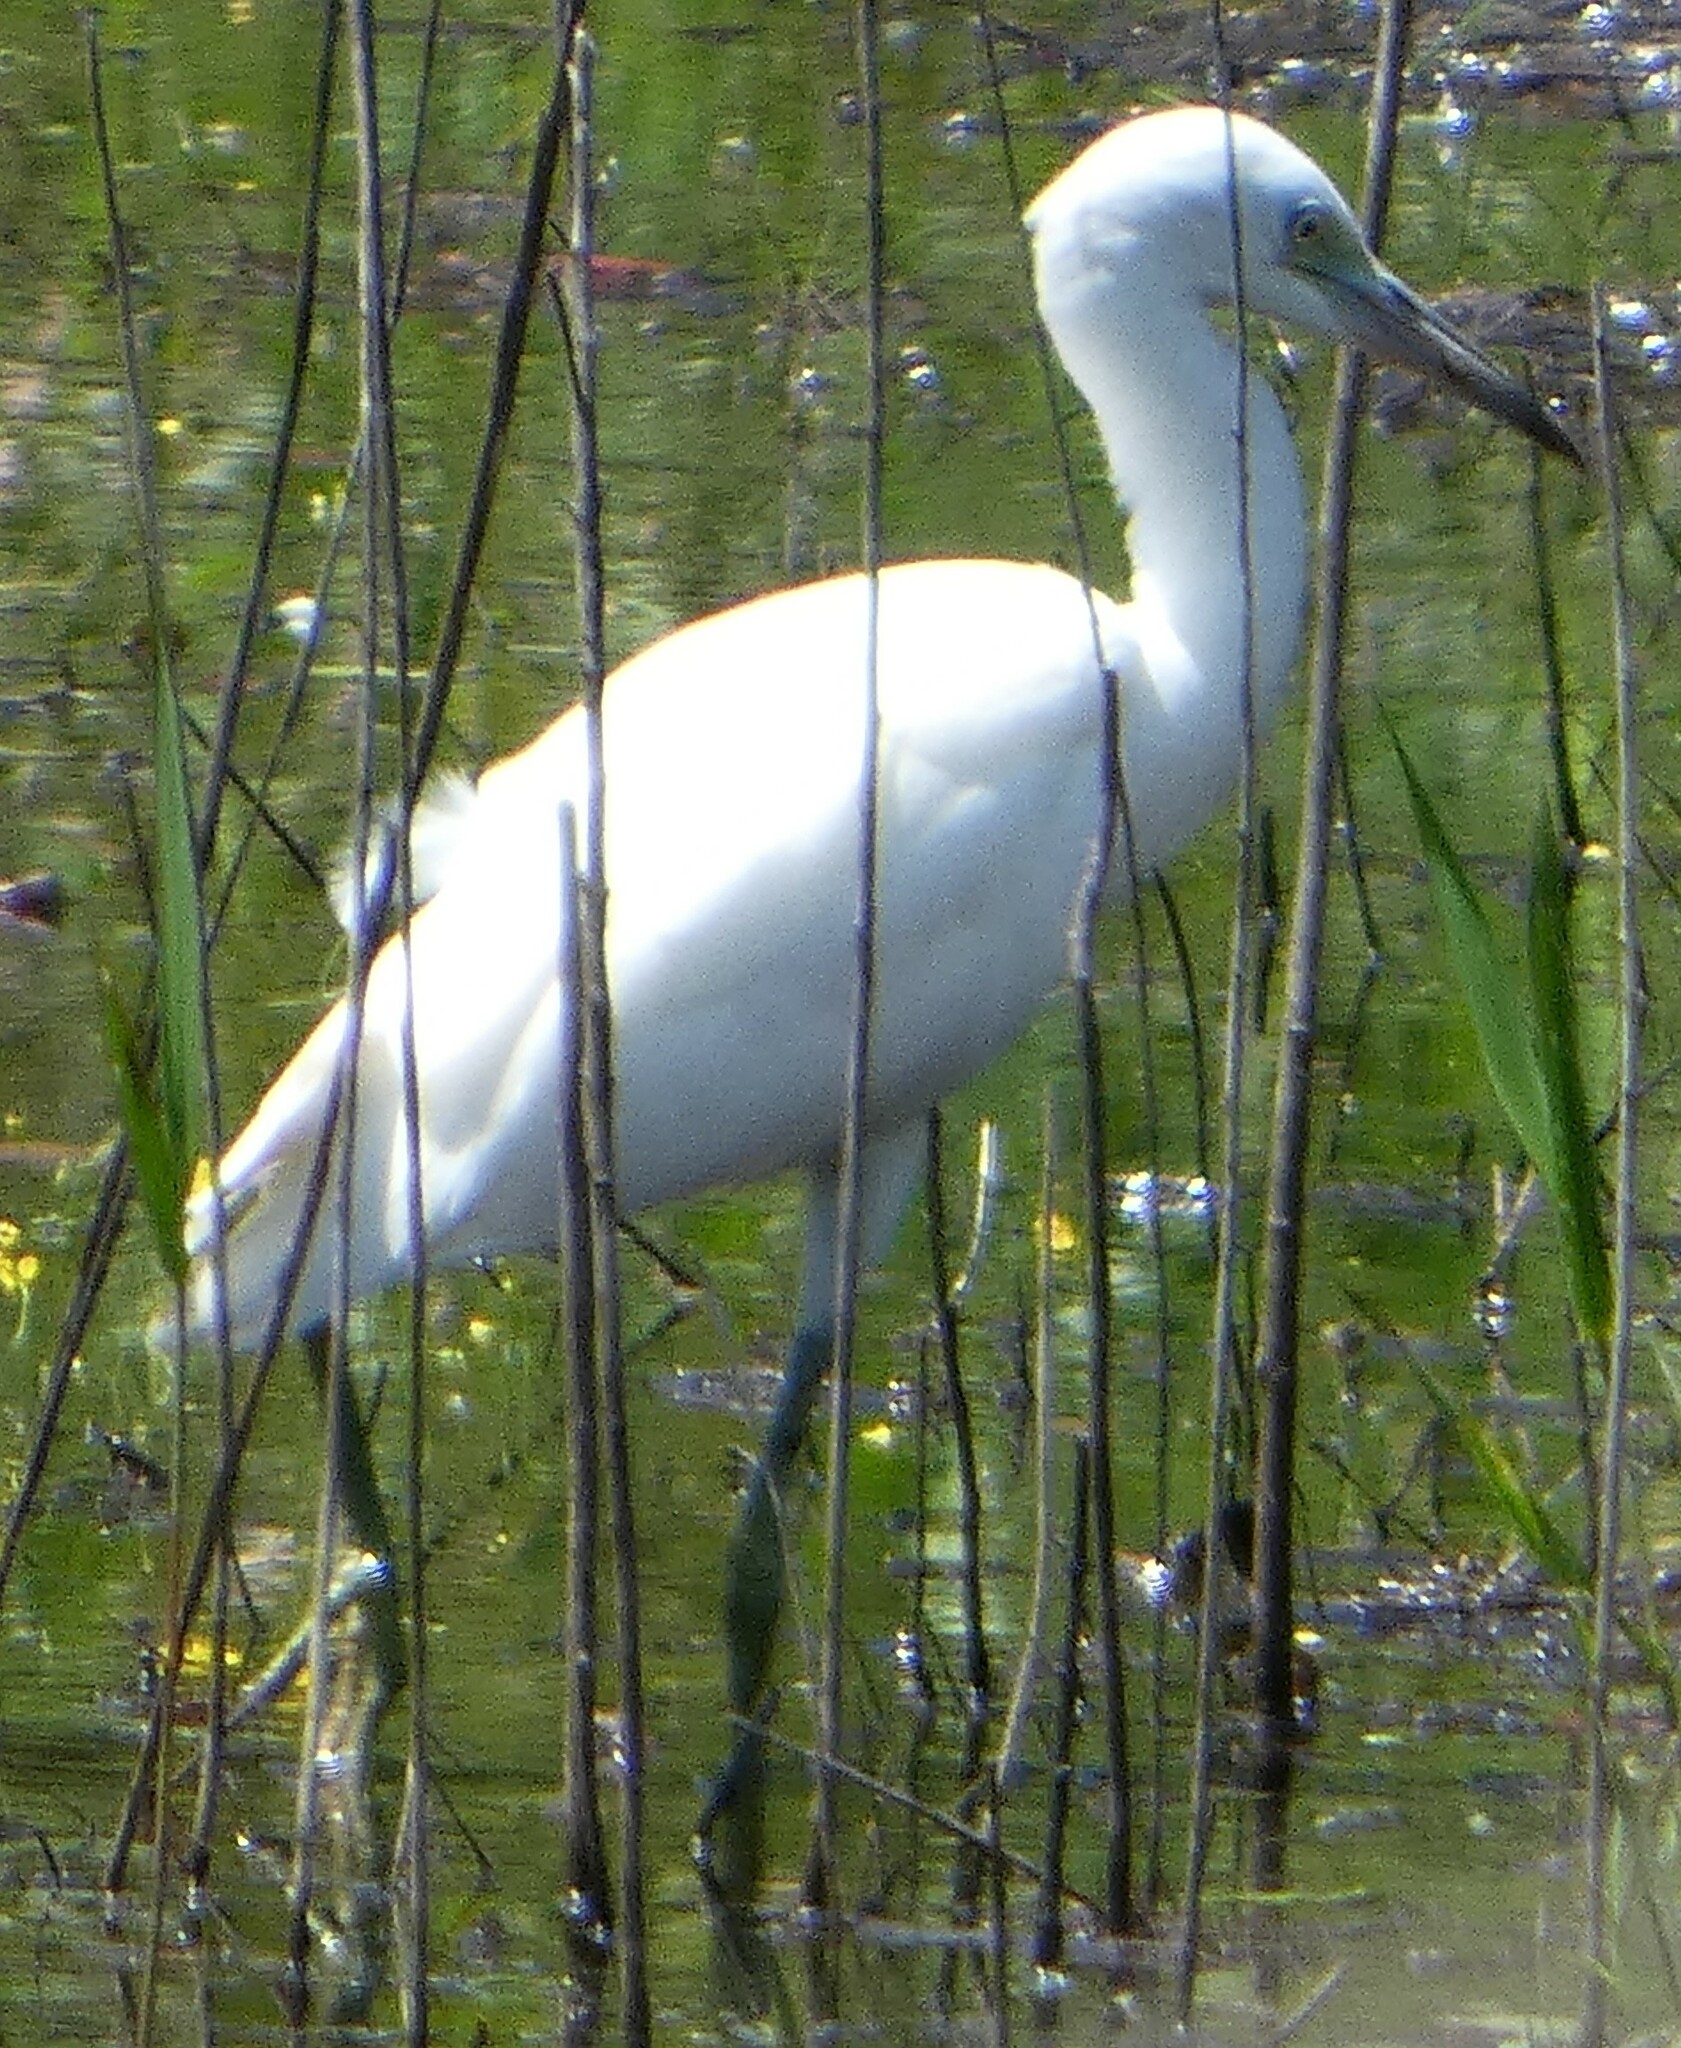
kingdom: Animalia
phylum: Chordata
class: Aves
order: Pelecaniformes
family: Ardeidae
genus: Egretta
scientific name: Egretta caerulea
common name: Little blue heron
